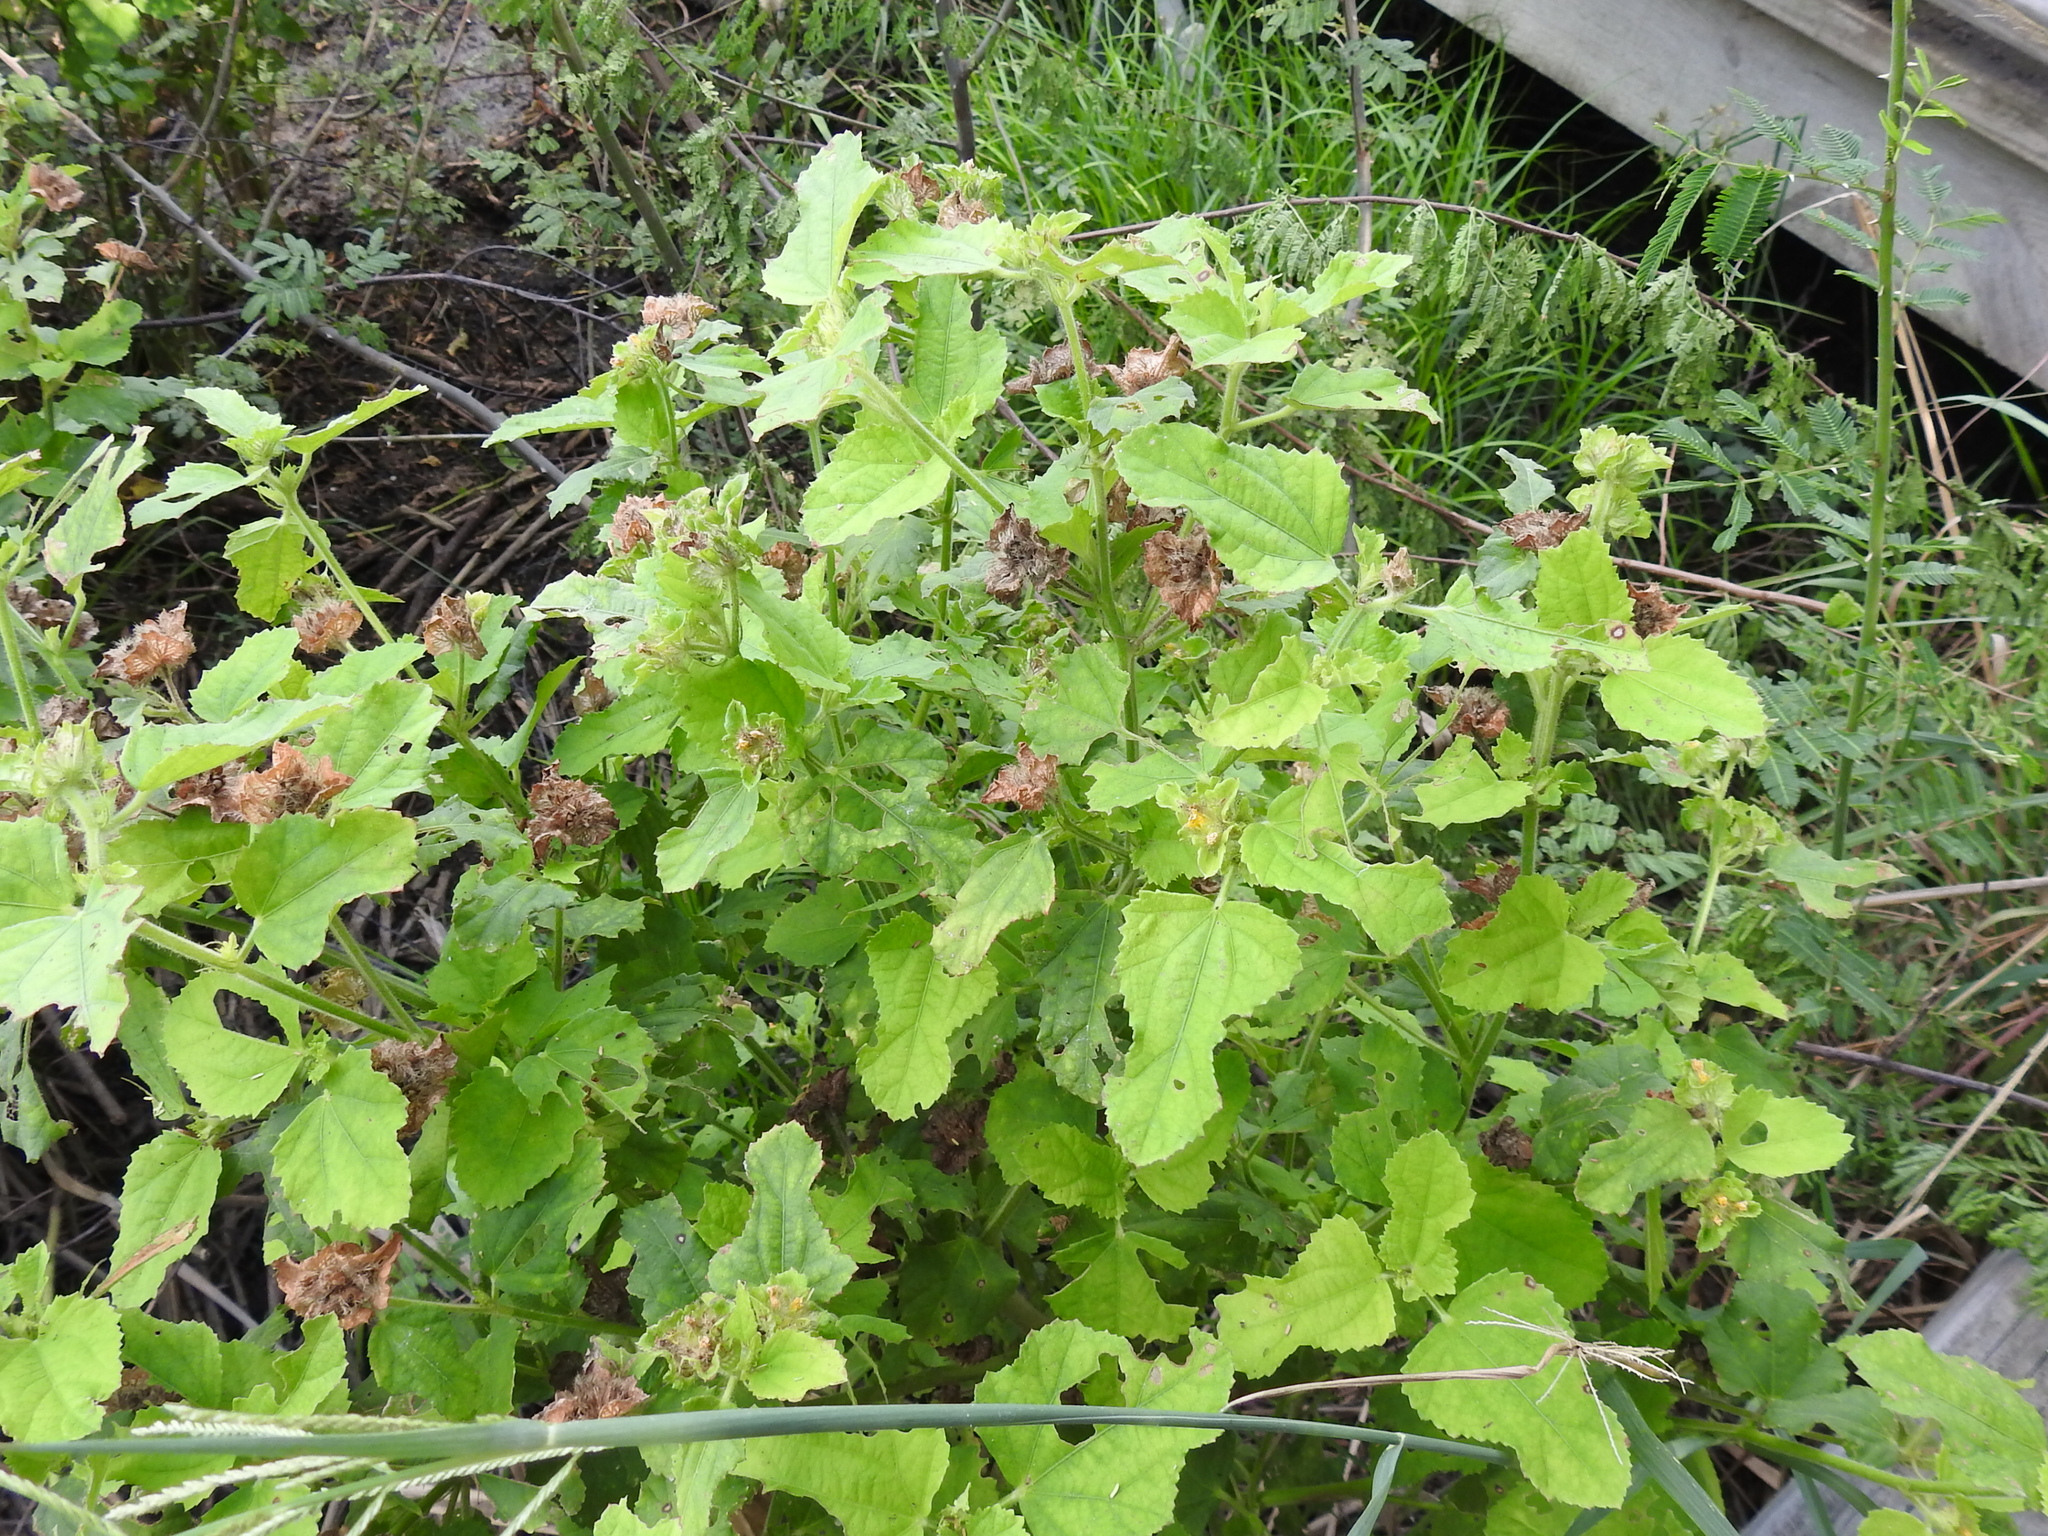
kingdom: Plantae
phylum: Tracheophyta
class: Magnoliopsida
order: Malvales
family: Malvaceae
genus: Malachra
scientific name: Malachra capitata
